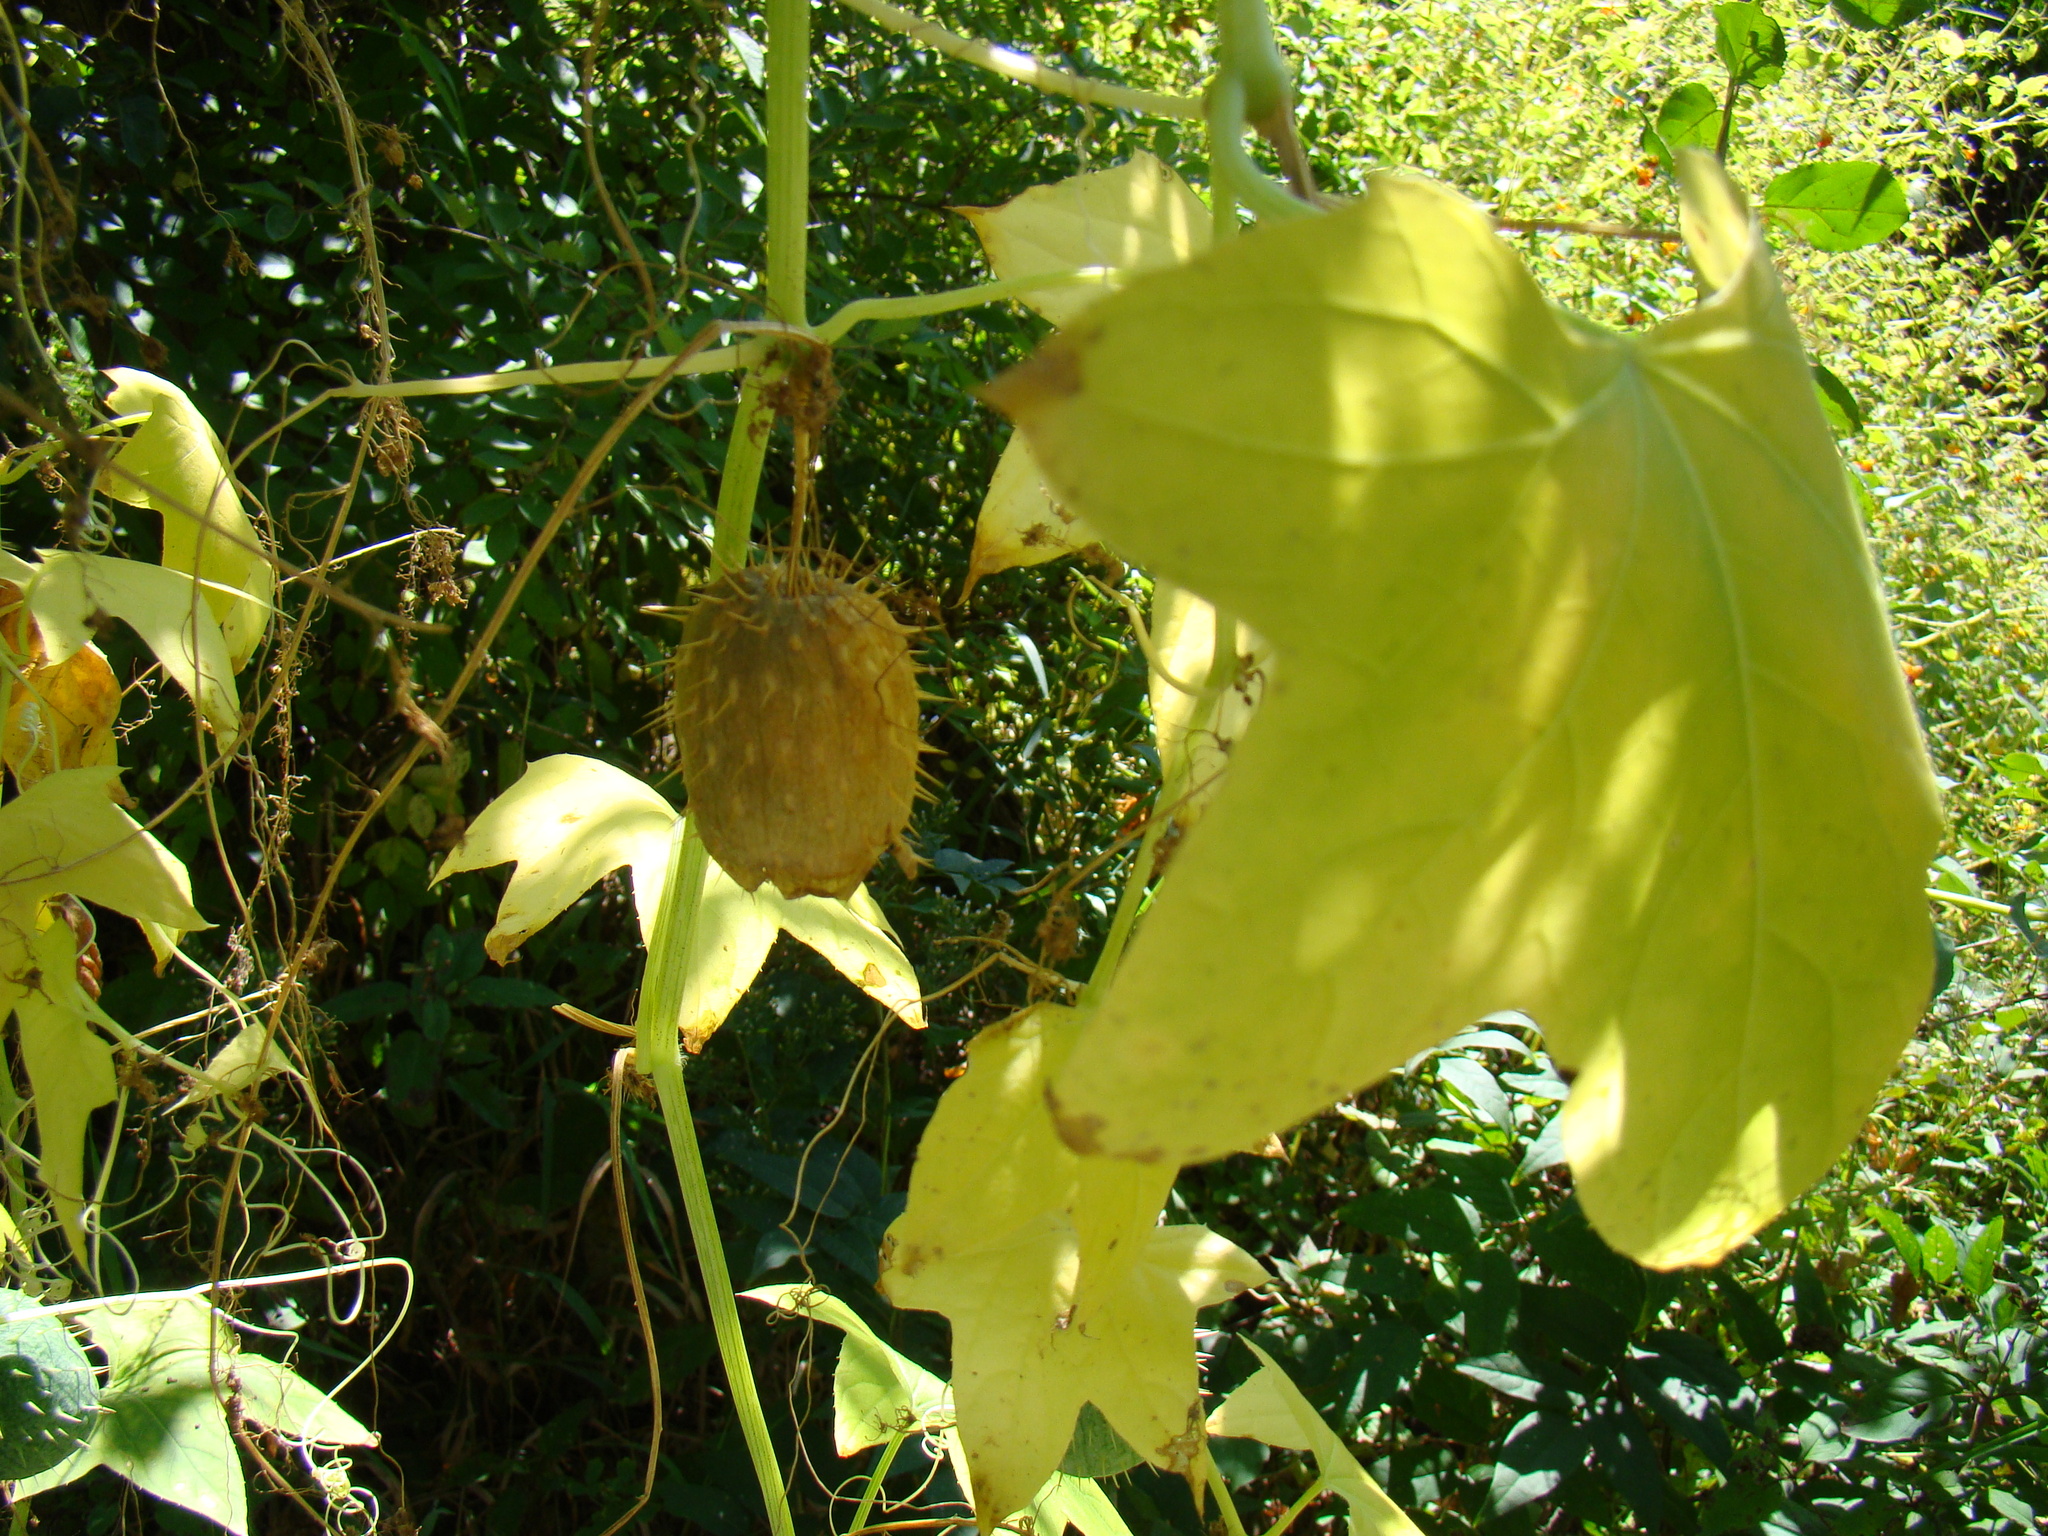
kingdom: Plantae
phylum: Tracheophyta
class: Magnoliopsida
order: Cucurbitales
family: Cucurbitaceae
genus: Echinocystis
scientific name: Echinocystis lobata
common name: Wild cucumber
